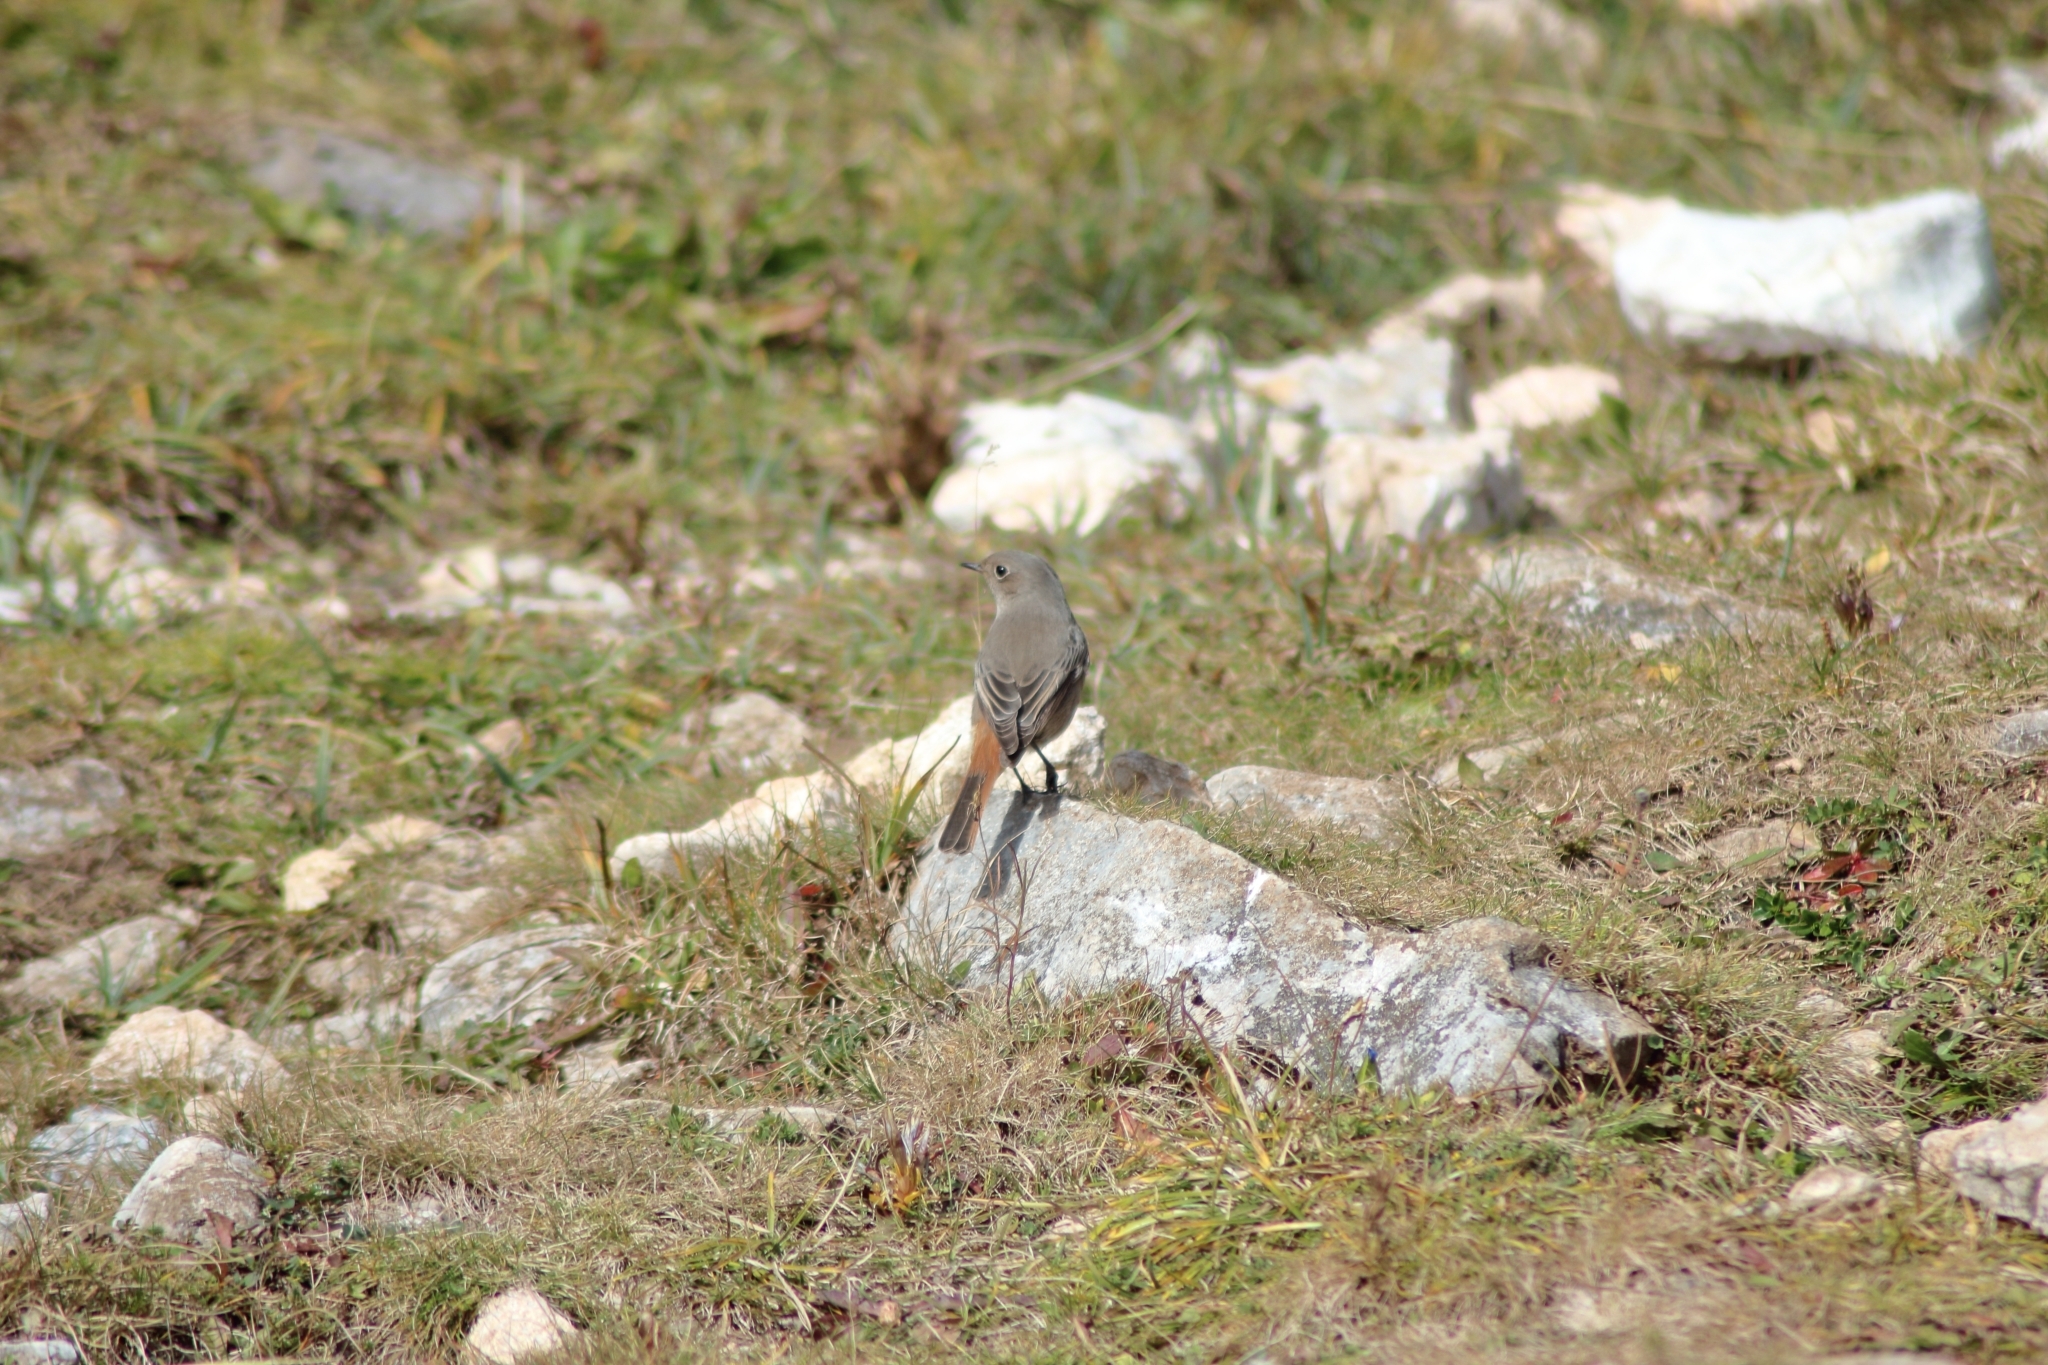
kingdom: Animalia
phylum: Chordata
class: Aves
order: Passeriformes
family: Muscicapidae
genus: Phoenicurus
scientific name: Phoenicurus ochruros
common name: Black redstart
